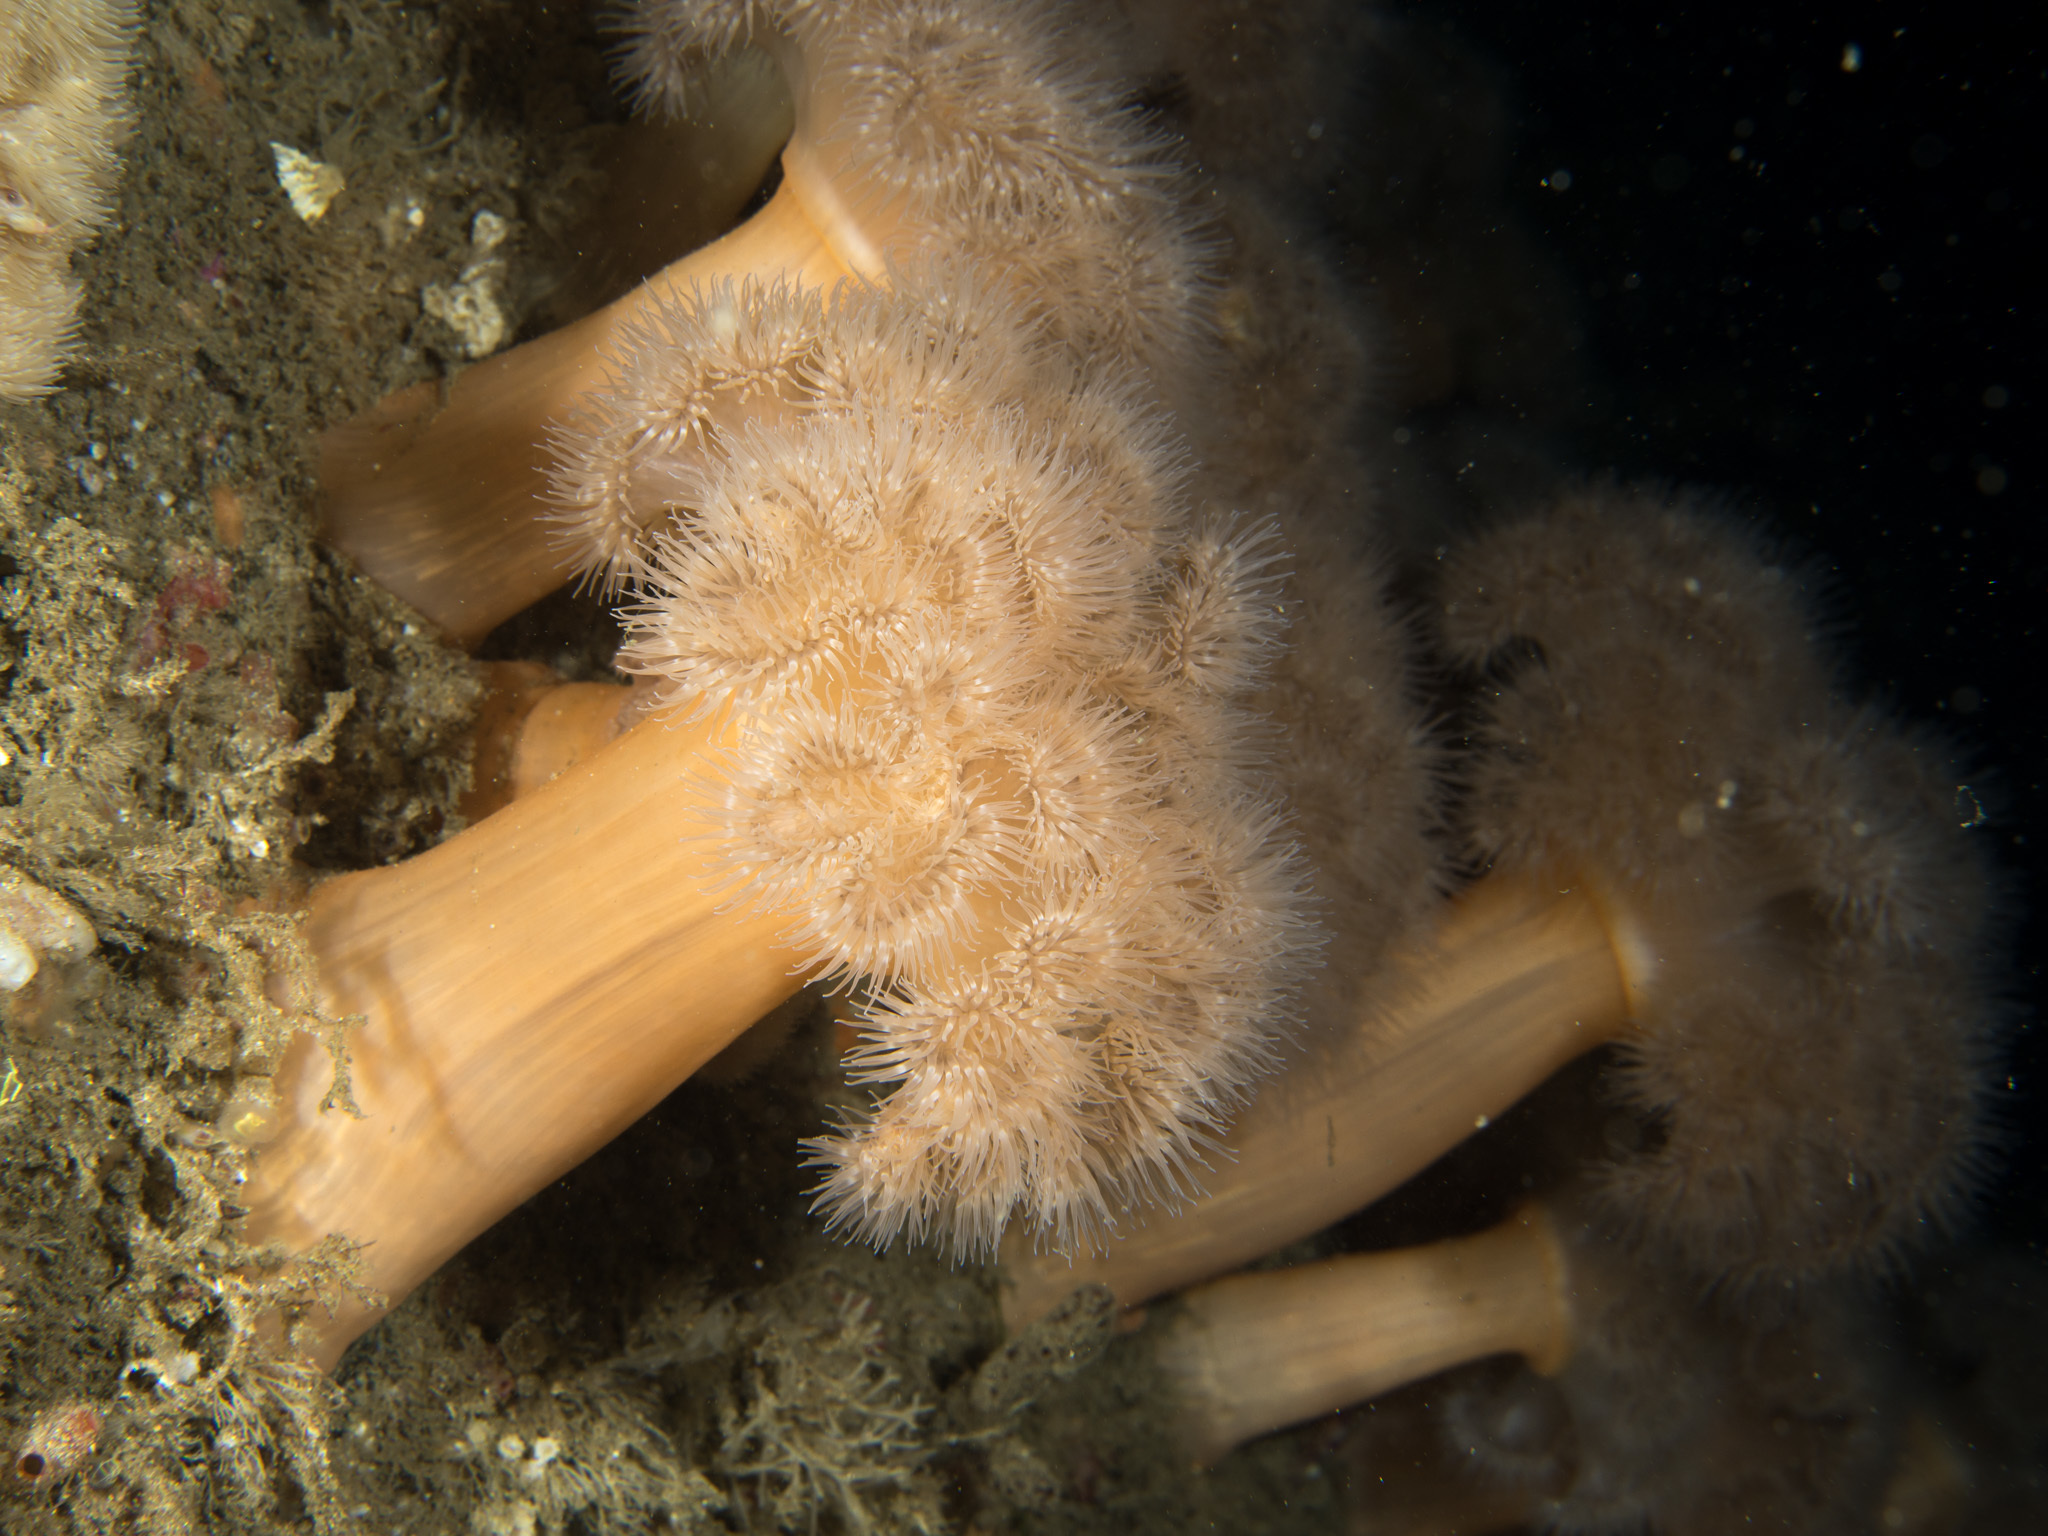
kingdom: Animalia
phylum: Cnidaria
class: Anthozoa
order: Actiniaria
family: Metridiidae
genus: Metridium
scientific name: Metridium senile
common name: Clonal plumose anemone
